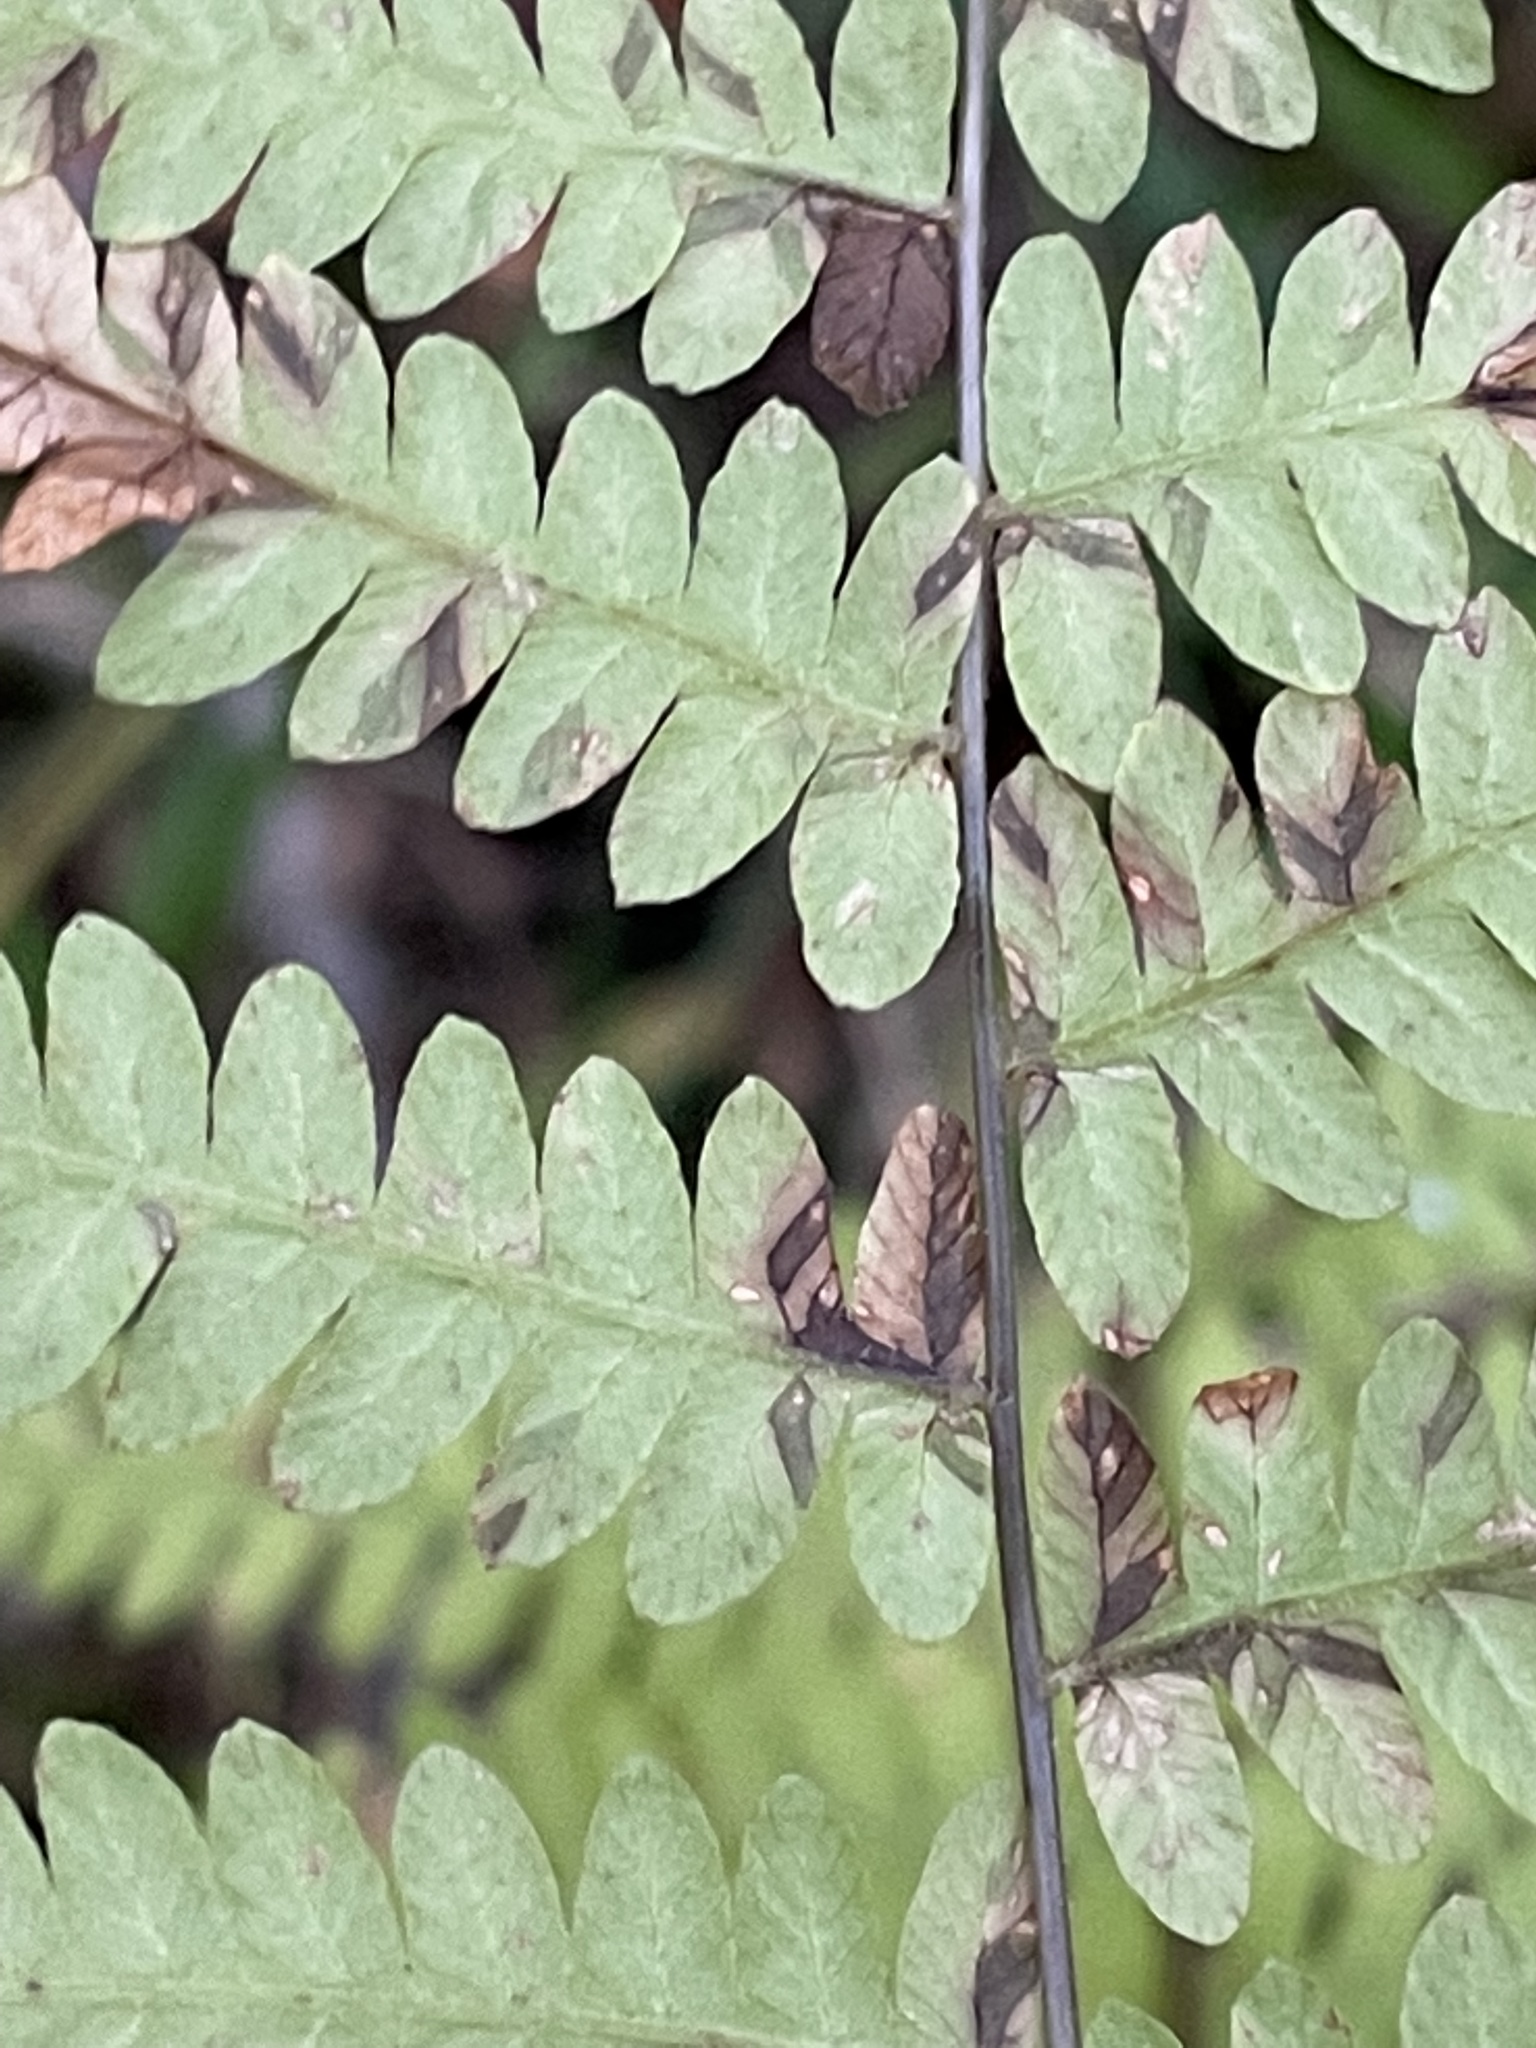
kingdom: Plantae
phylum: Tracheophyta
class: Polypodiopsida
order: Polypodiales
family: Thelypteridaceae
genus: Thelypteris
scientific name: Thelypteris palustris
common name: Marsh fern
